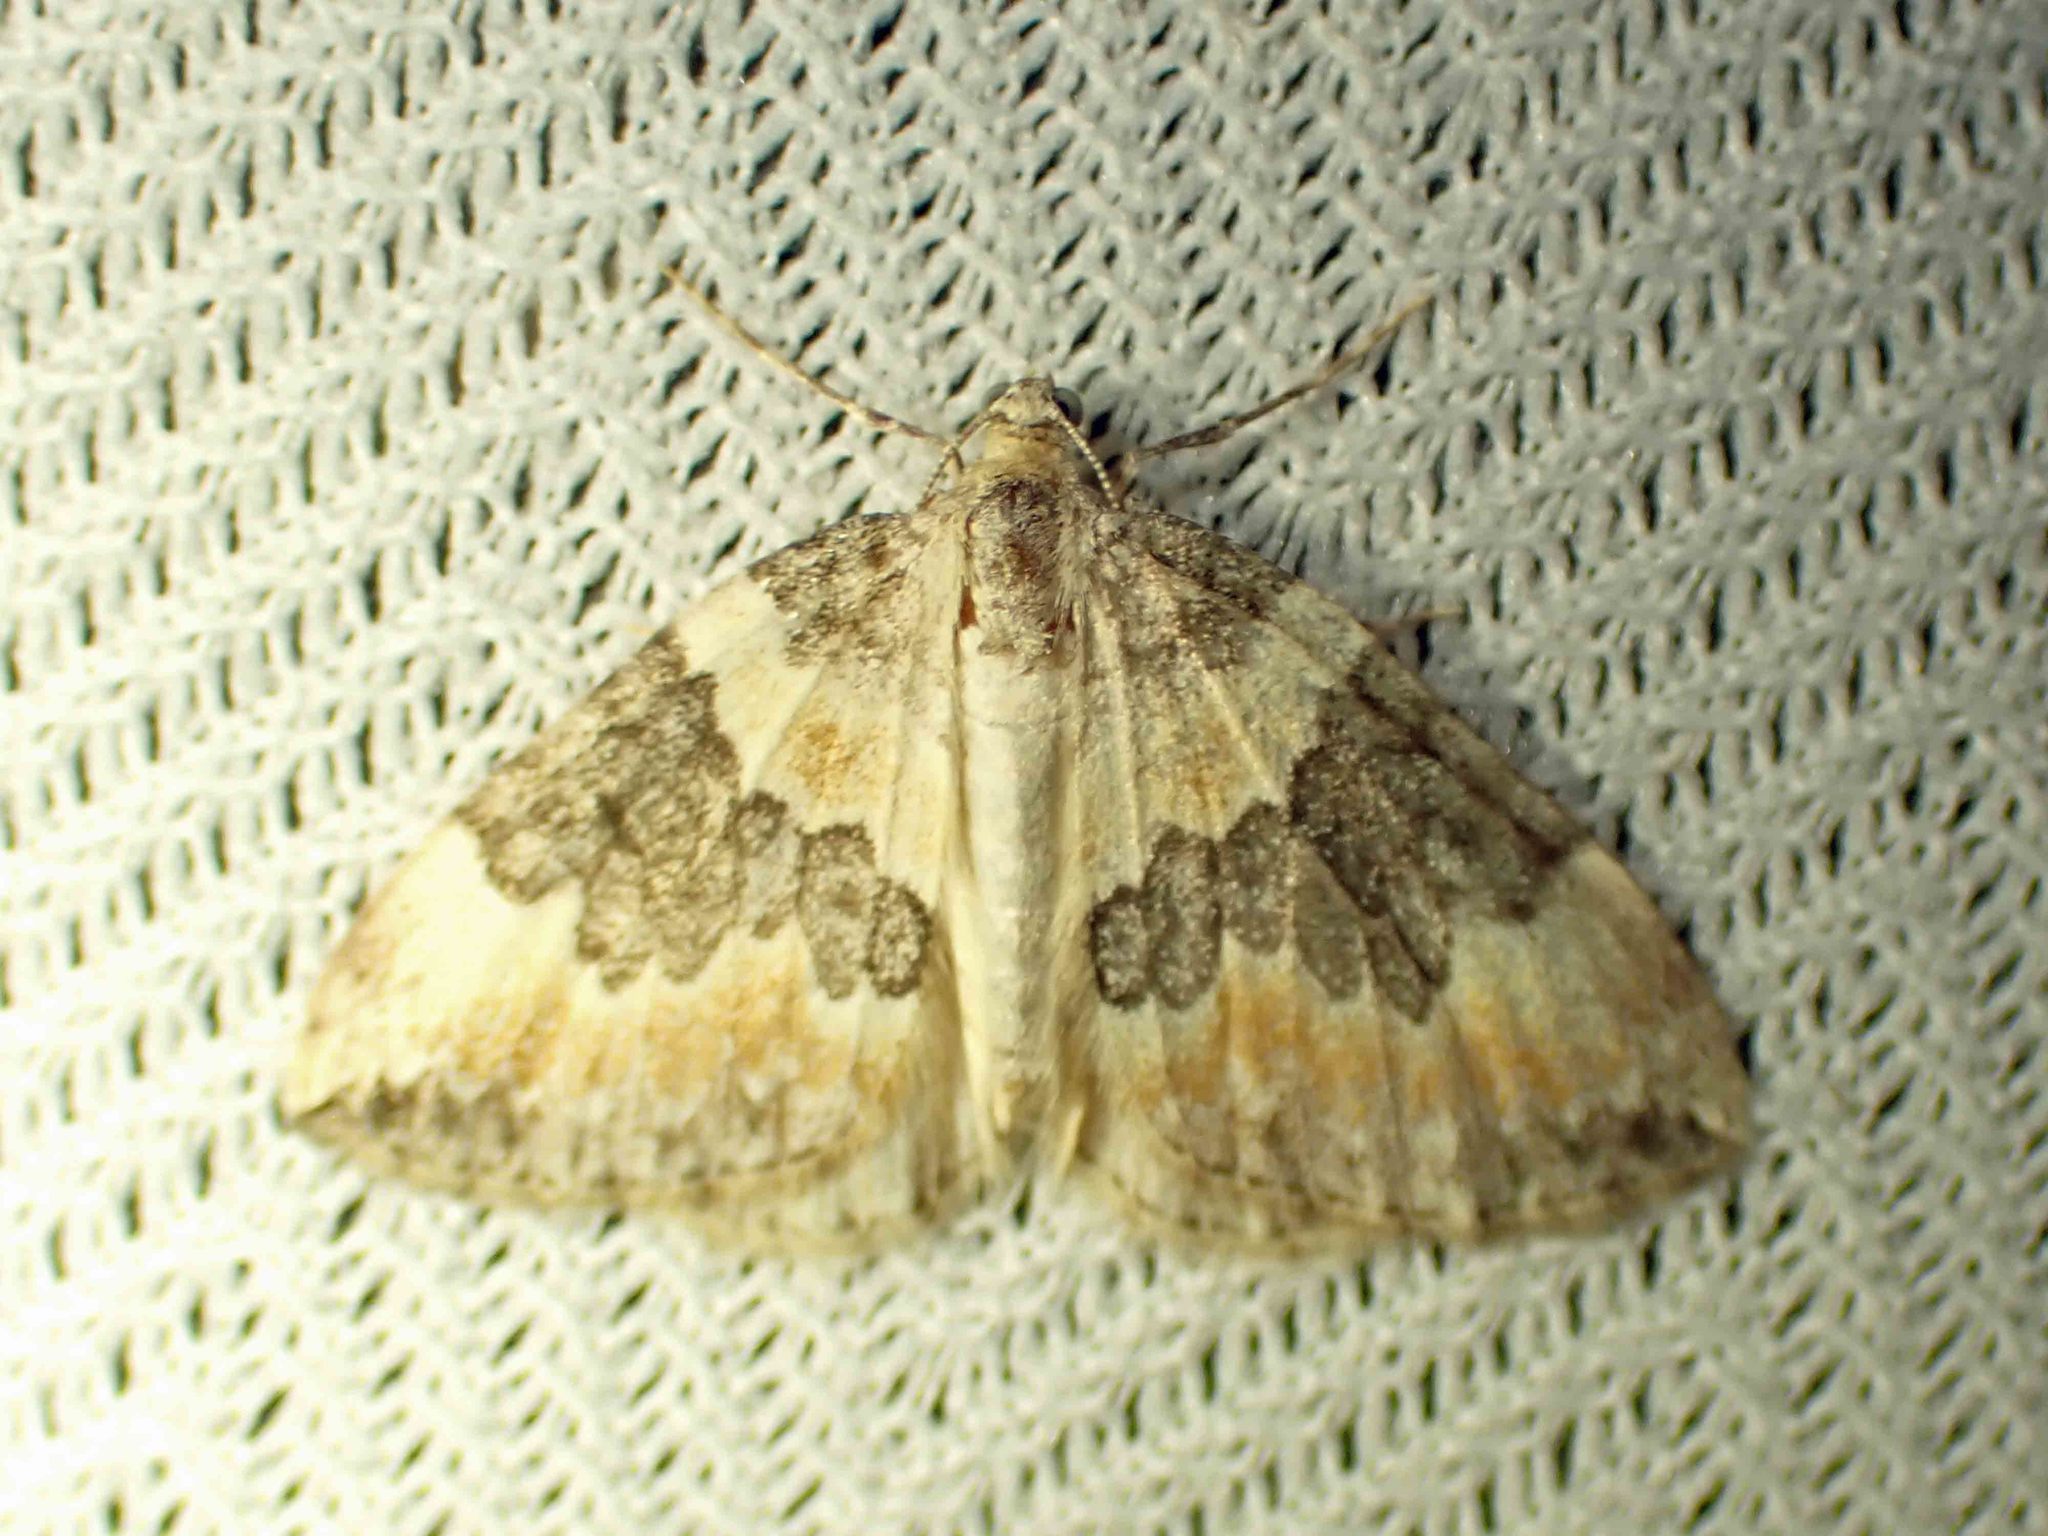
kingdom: Animalia
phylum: Arthropoda
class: Insecta
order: Lepidoptera
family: Geometridae
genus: Dysstroma
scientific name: Dysstroma brunneata
